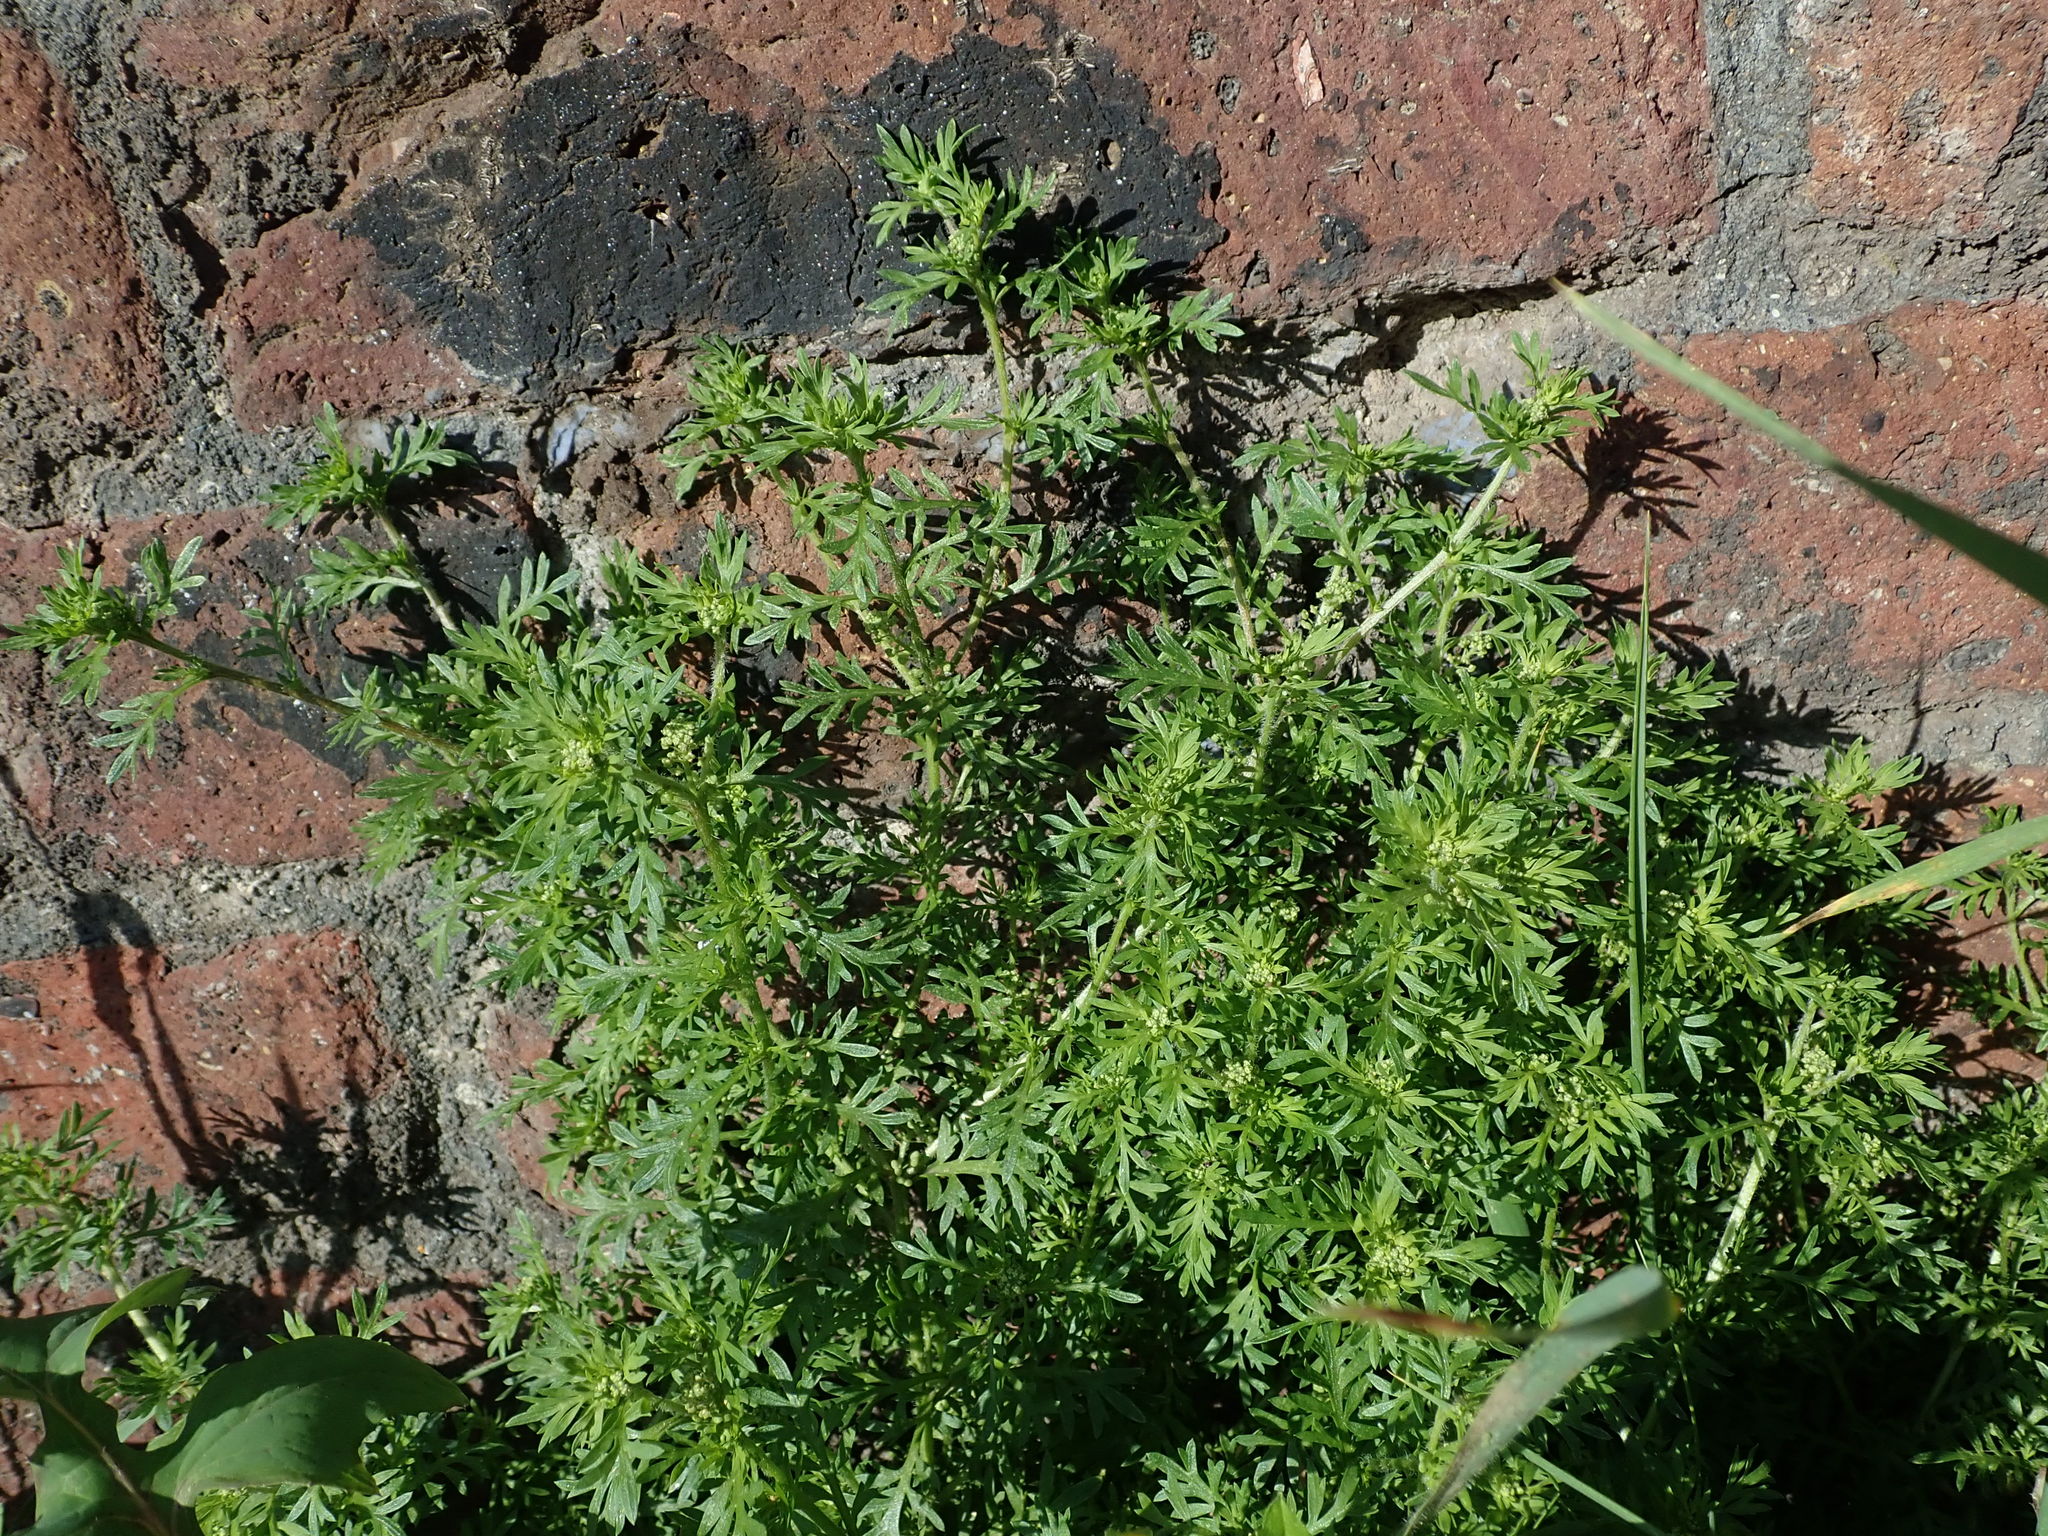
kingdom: Plantae
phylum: Tracheophyta
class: Magnoliopsida
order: Brassicales
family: Brassicaceae
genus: Lepidium
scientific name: Lepidium didymum
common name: Lesser swinecress
